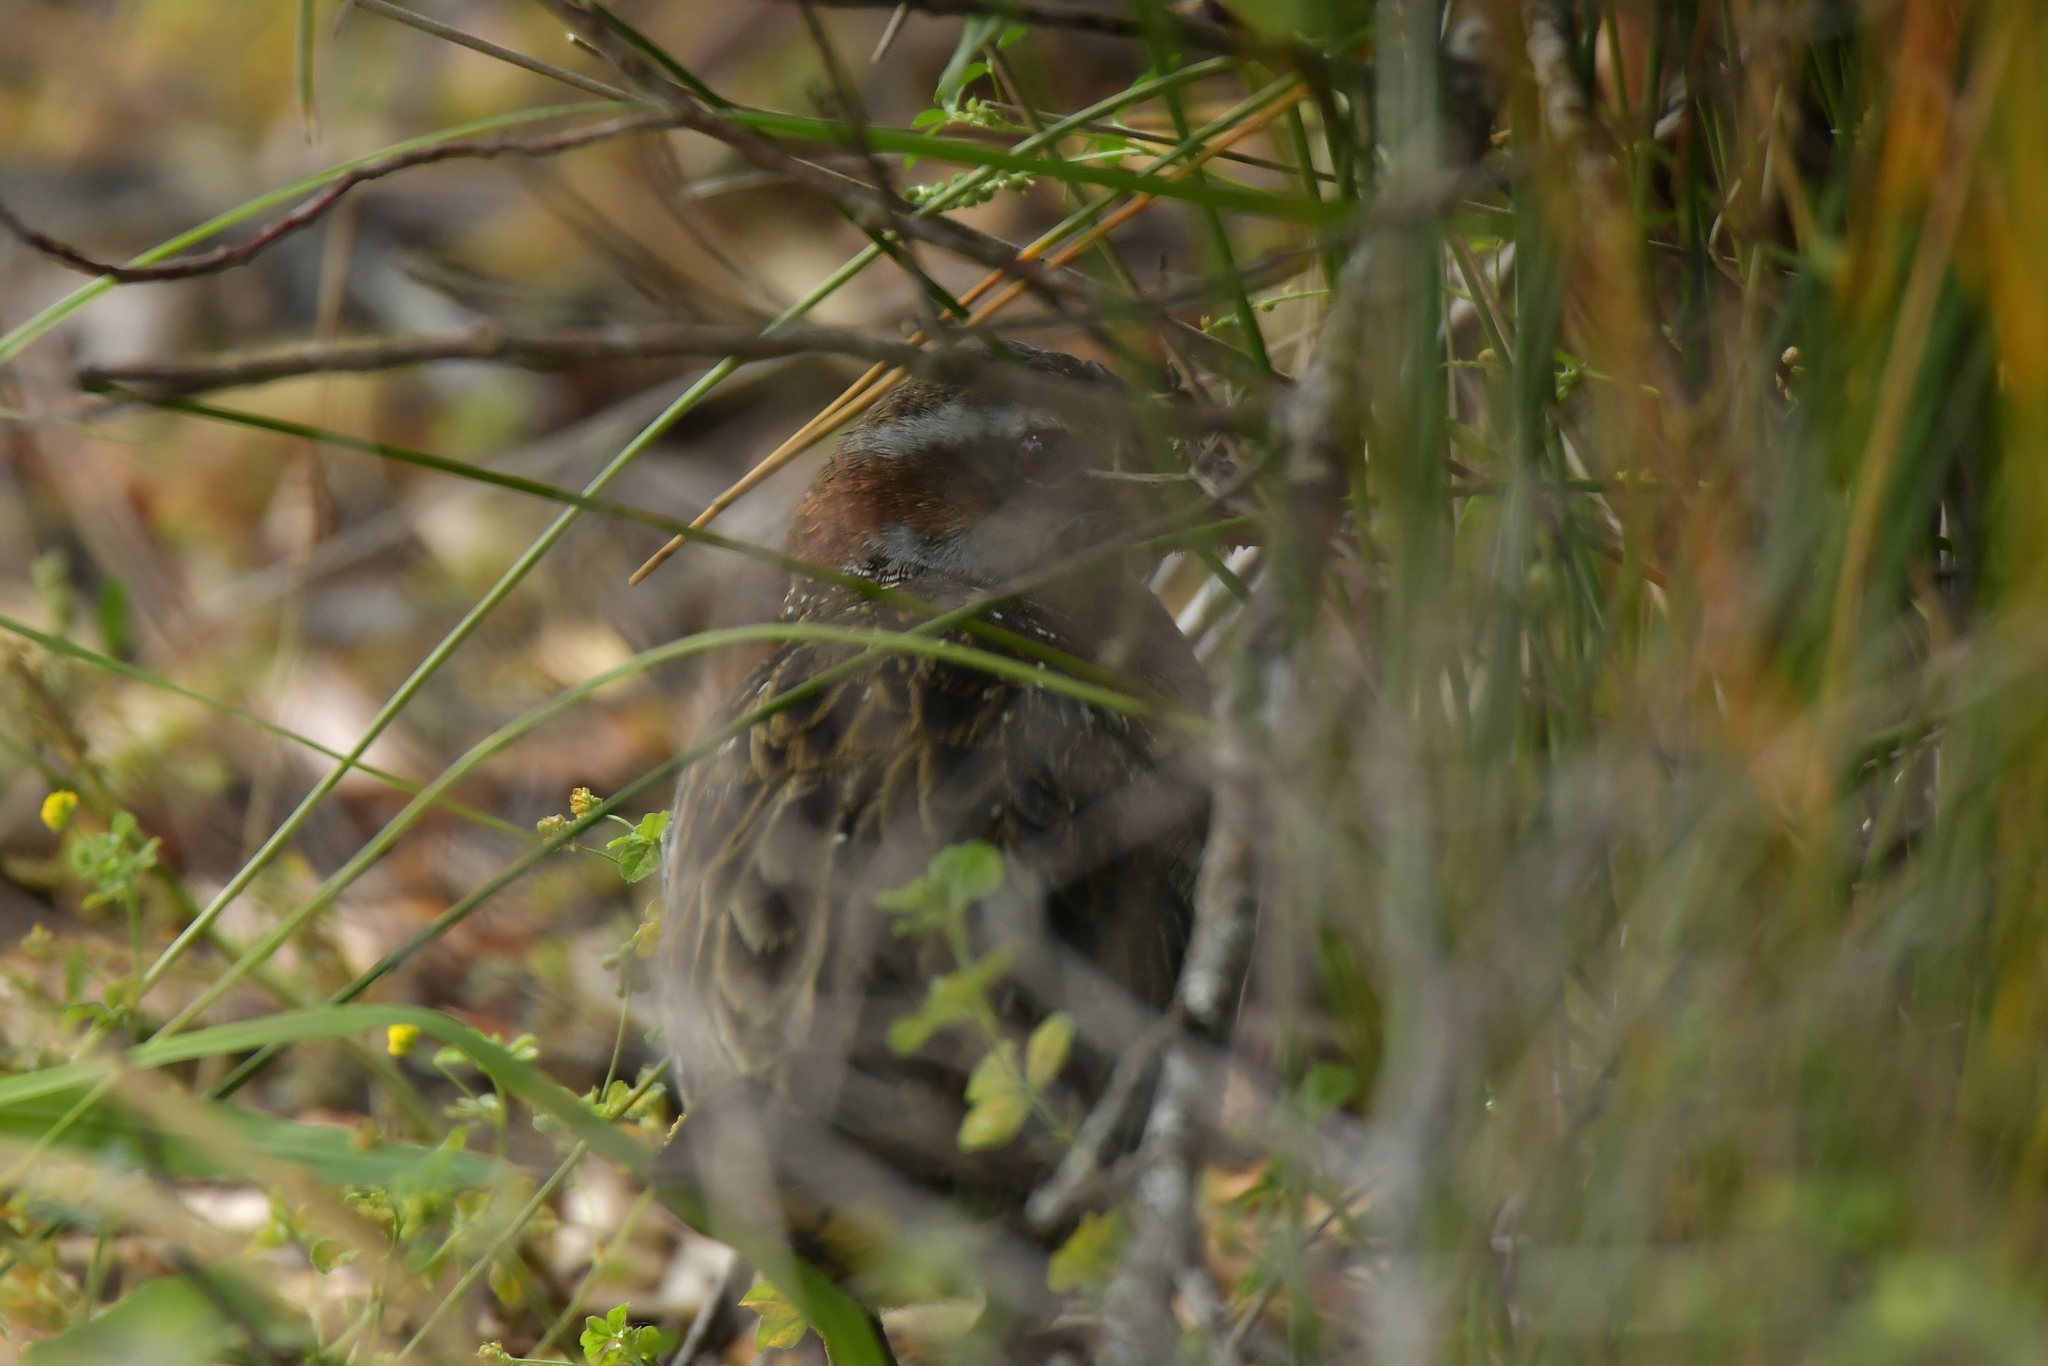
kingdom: Animalia
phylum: Chordata
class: Aves
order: Gruiformes
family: Rallidae
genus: Gallirallus
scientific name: Gallirallus philippensis
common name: Buff-banded rail
